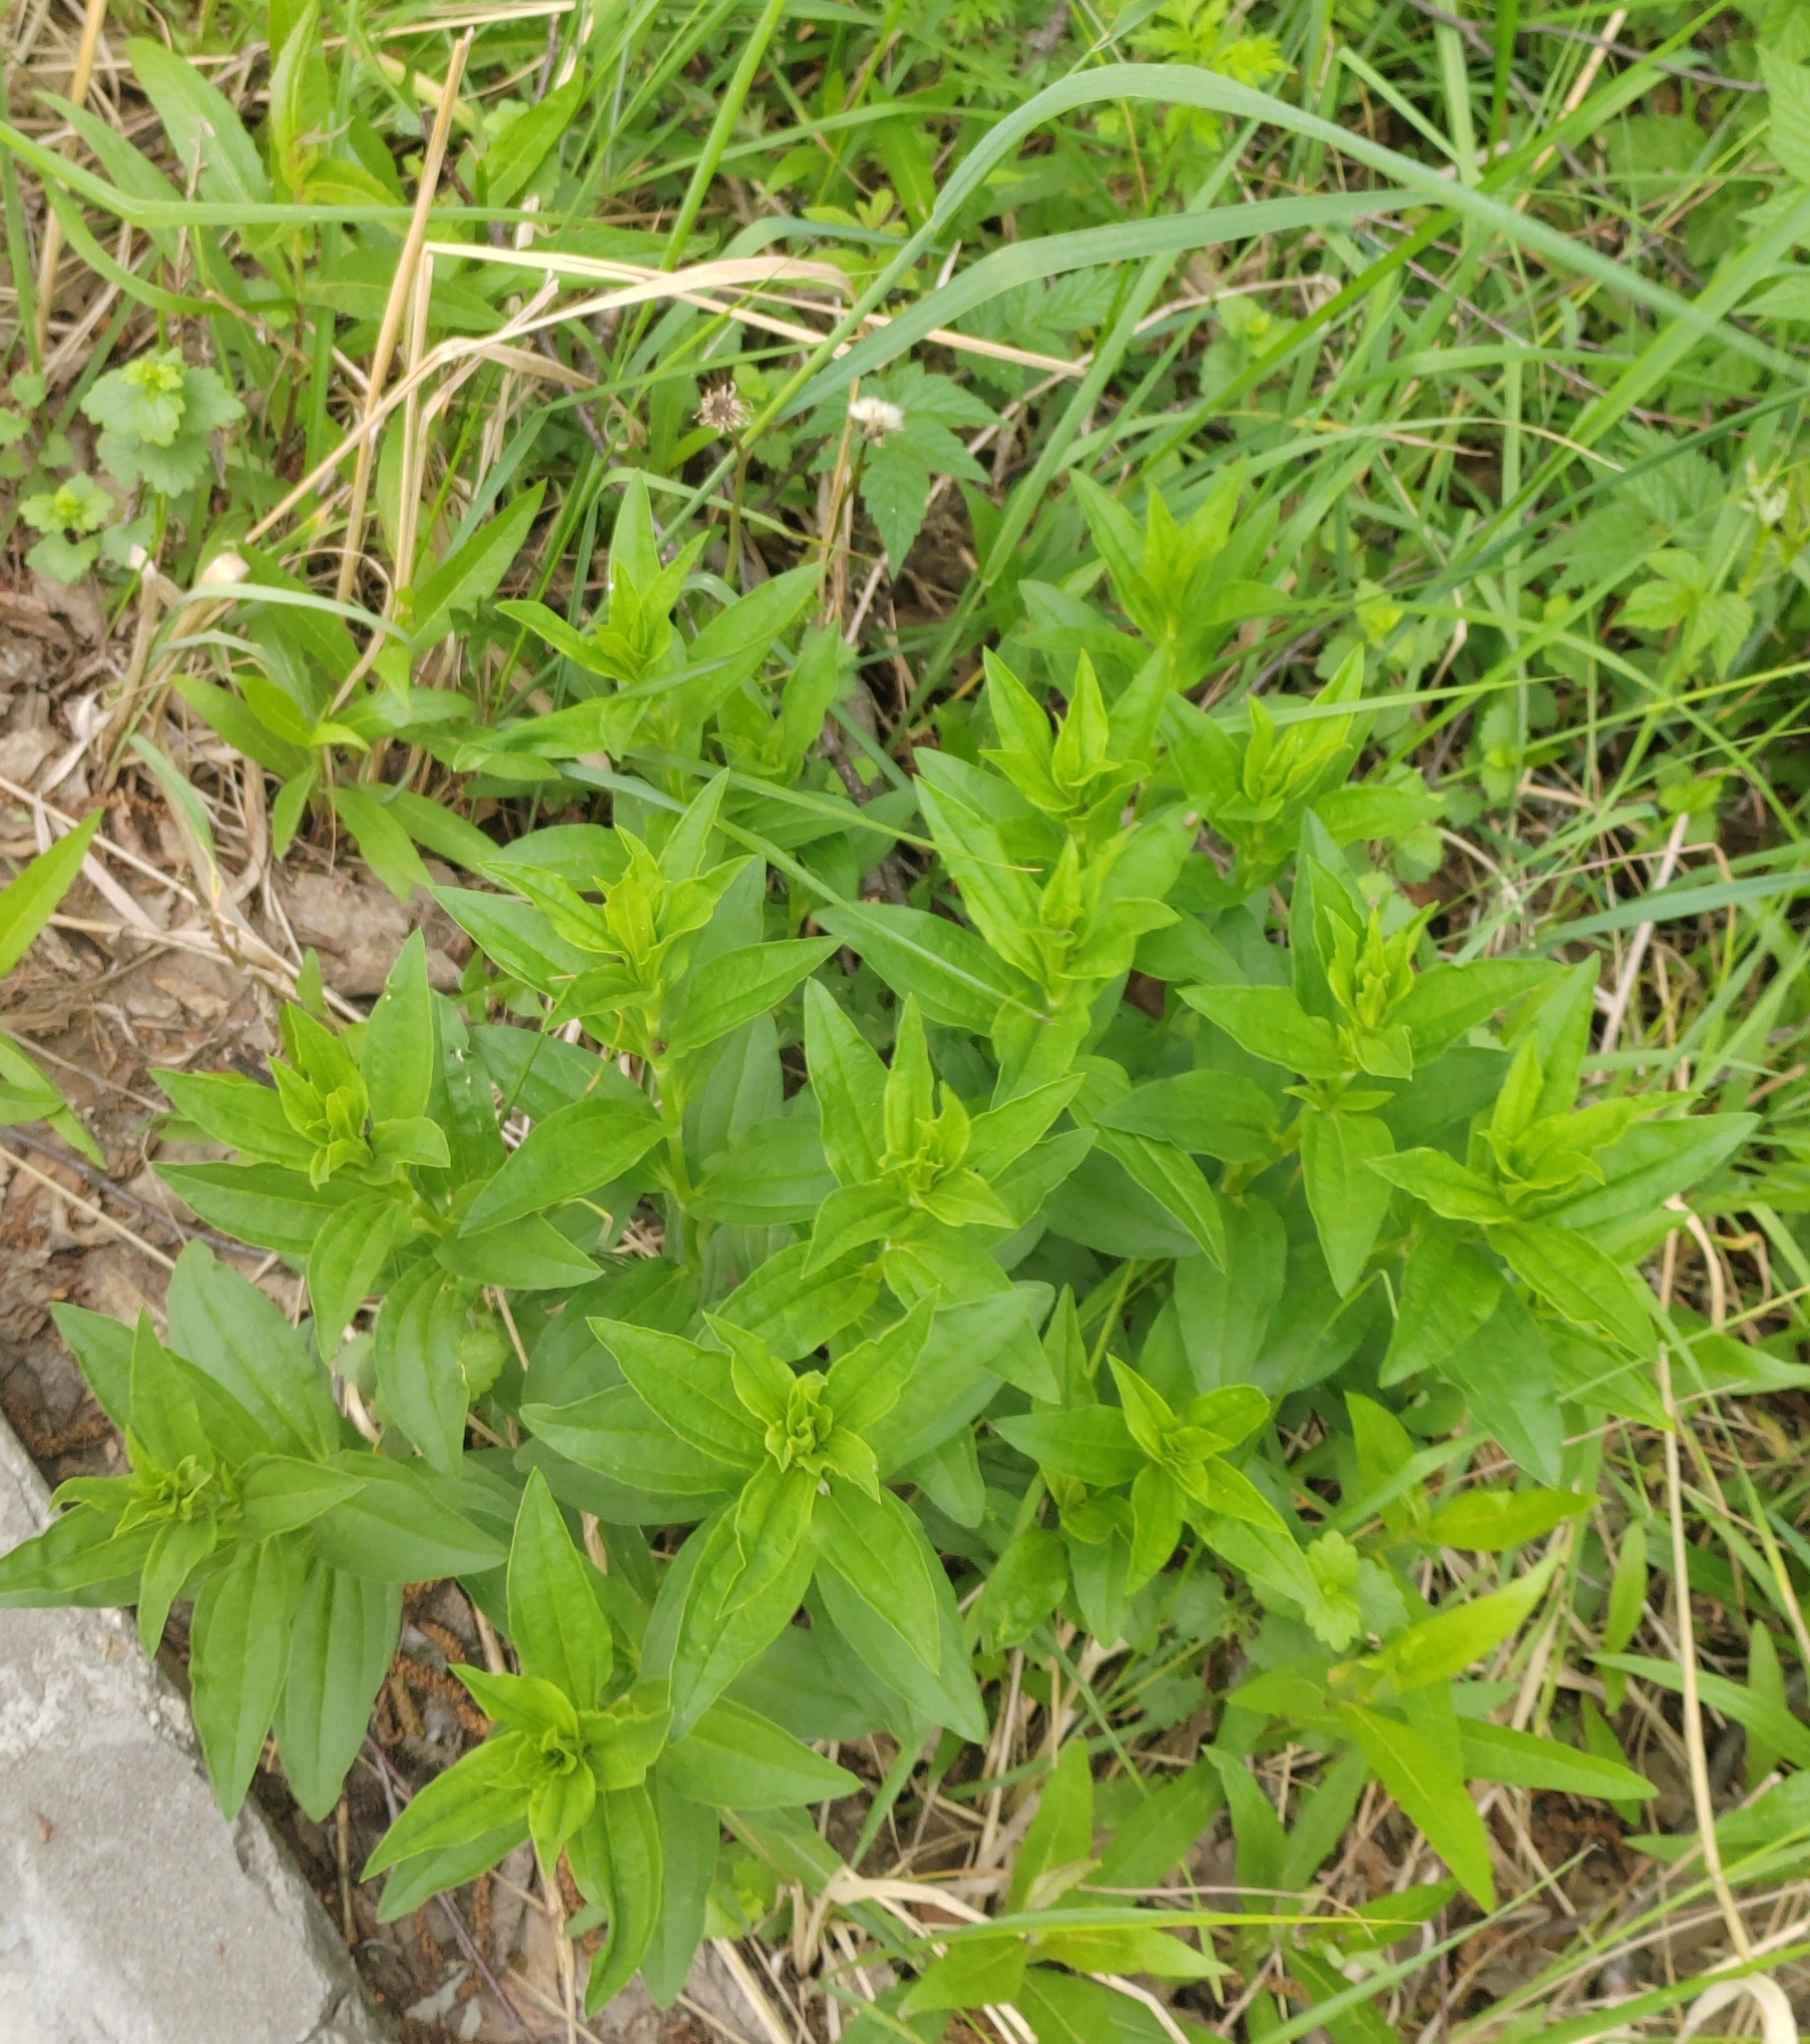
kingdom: Plantae
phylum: Tracheophyta
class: Magnoliopsida
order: Caryophyllales
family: Caryophyllaceae
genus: Saponaria
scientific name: Saponaria officinalis
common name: Soapwort
